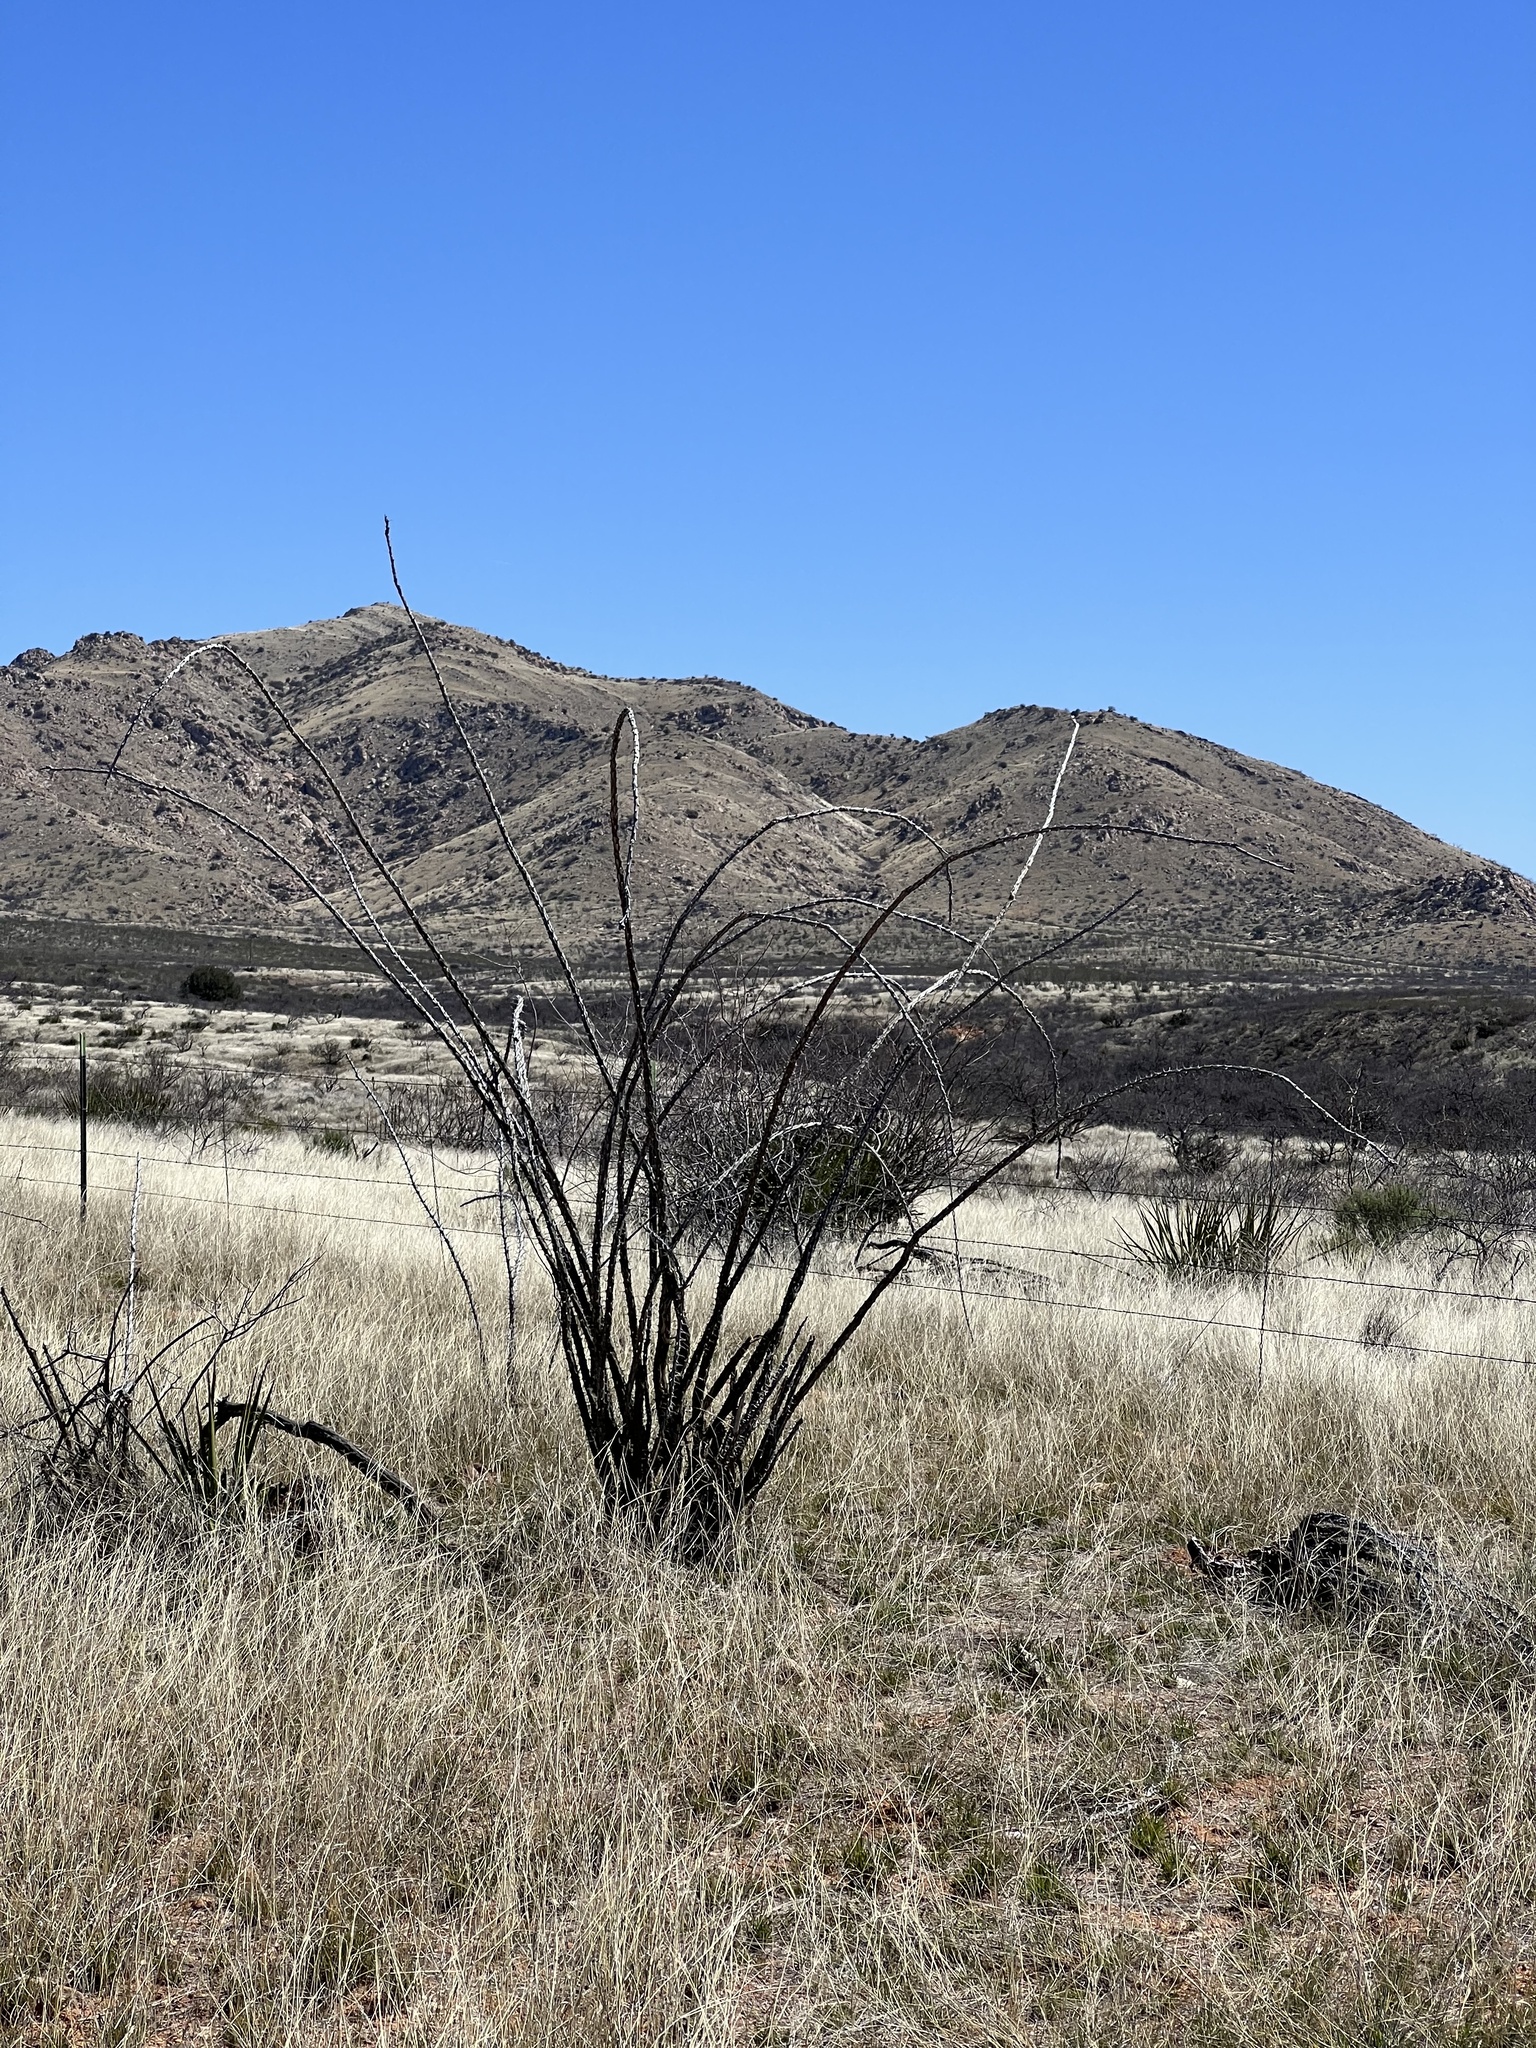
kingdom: Plantae
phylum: Tracheophyta
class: Magnoliopsida
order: Ericales
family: Fouquieriaceae
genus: Fouquieria
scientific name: Fouquieria splendens
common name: Vine-cactus
